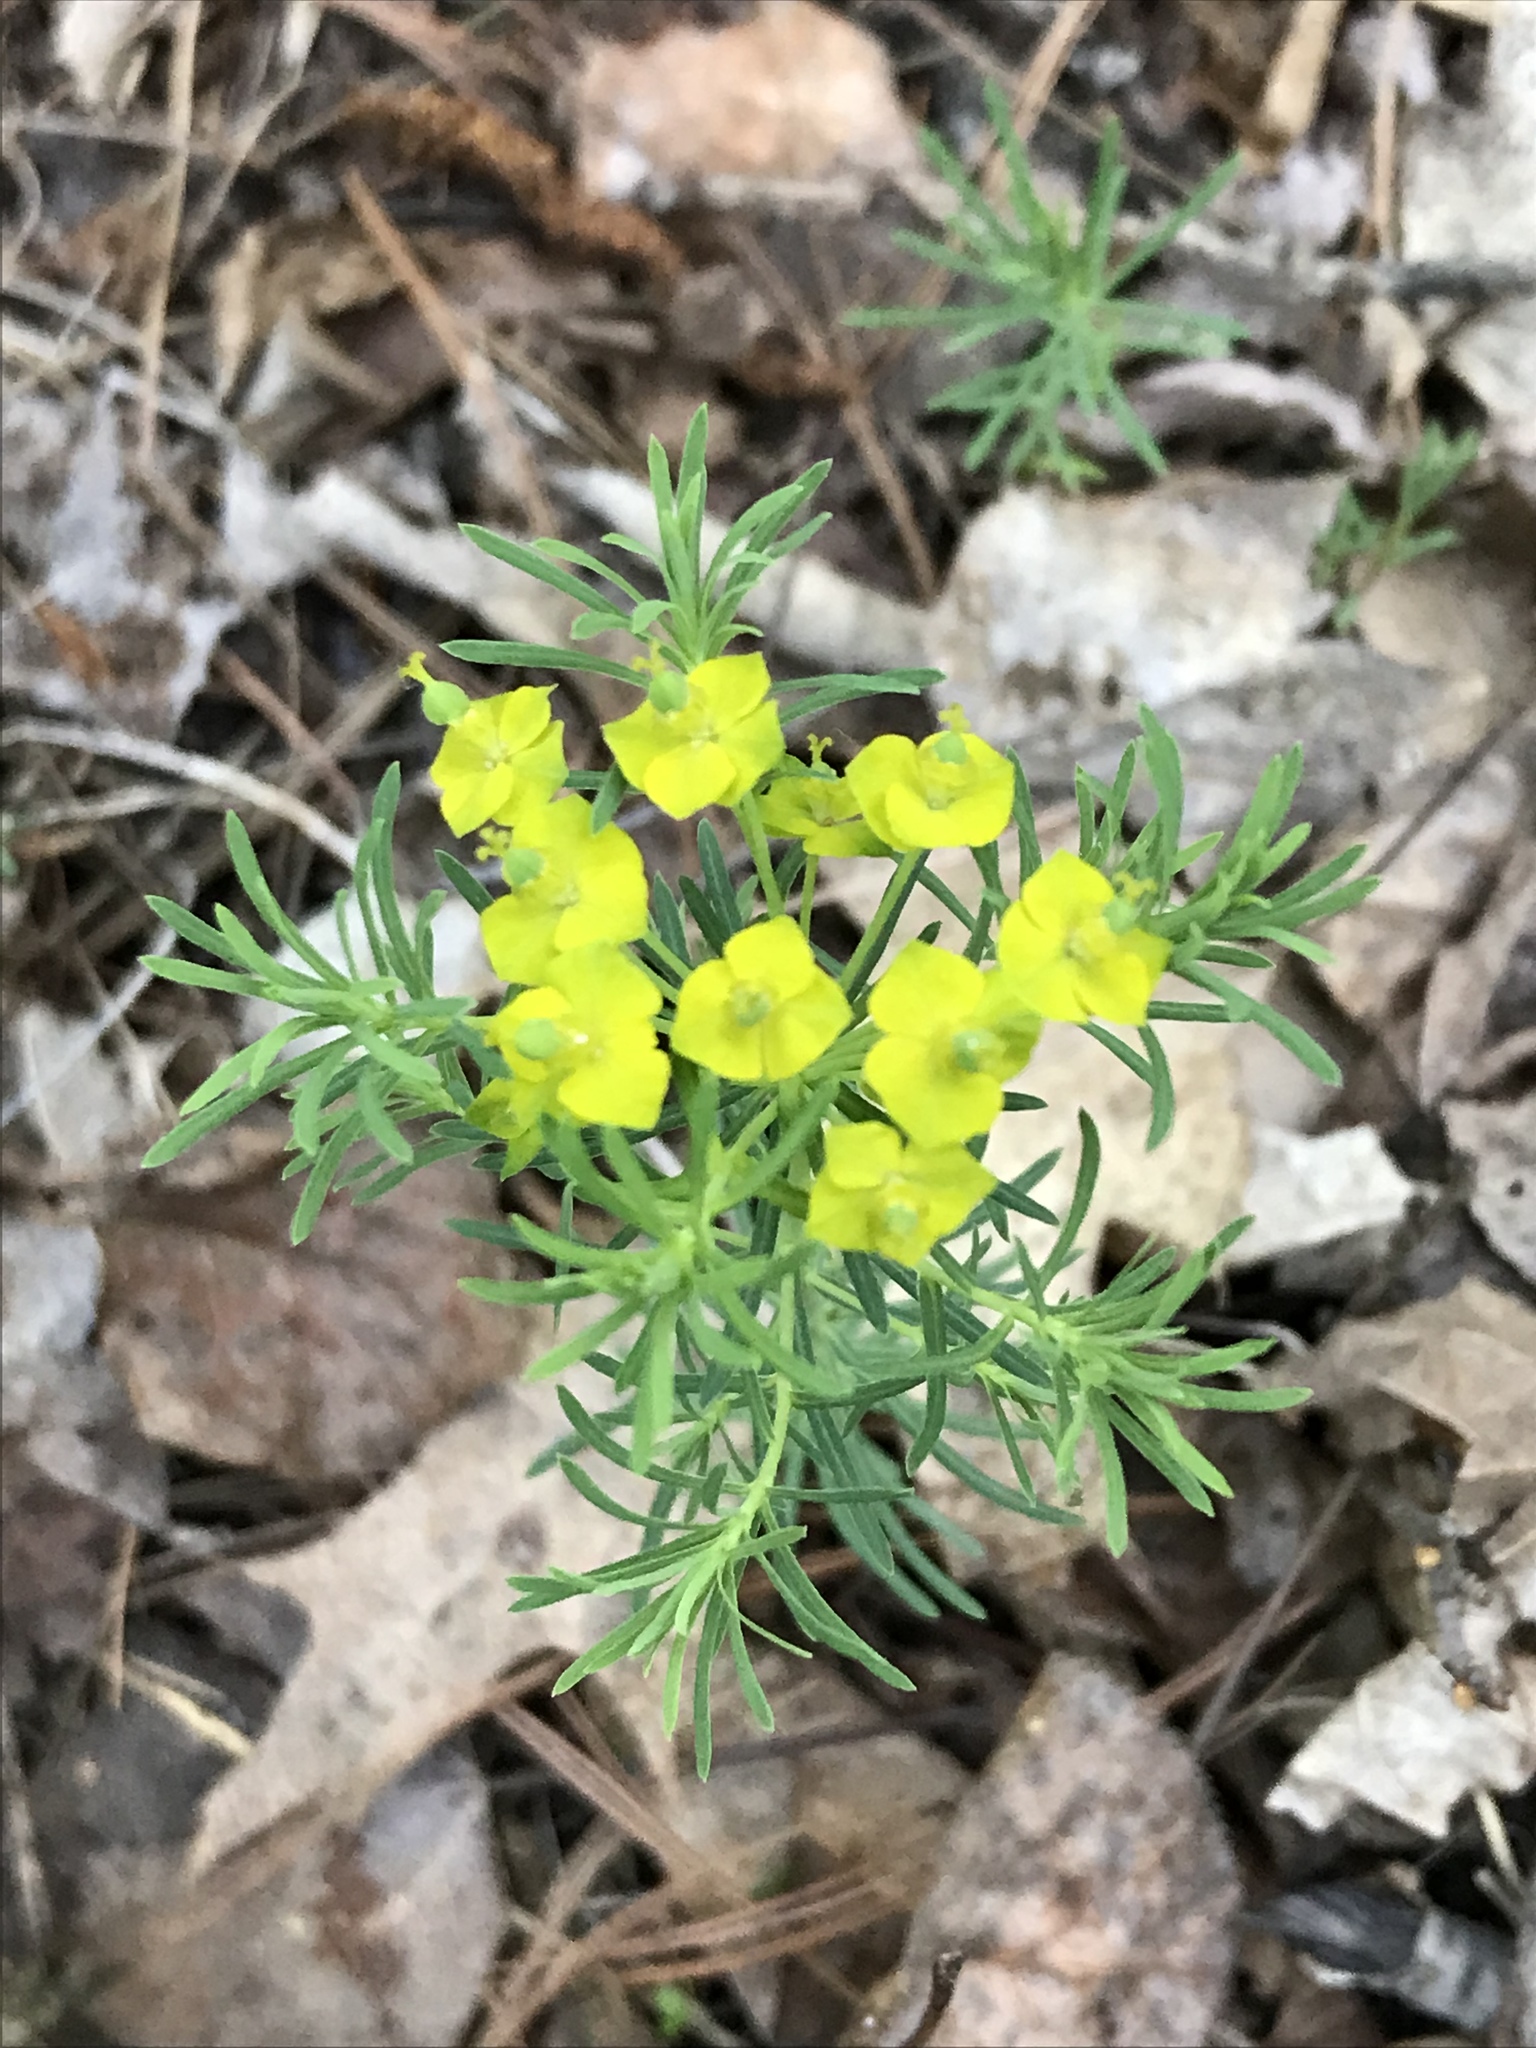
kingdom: Plantae
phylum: Tracheophyta
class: Magnoliopsida
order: Malpighiales
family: Euphorbiaceae
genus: Euphorbia
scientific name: Euphorbia virgata
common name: Leafy spurge
